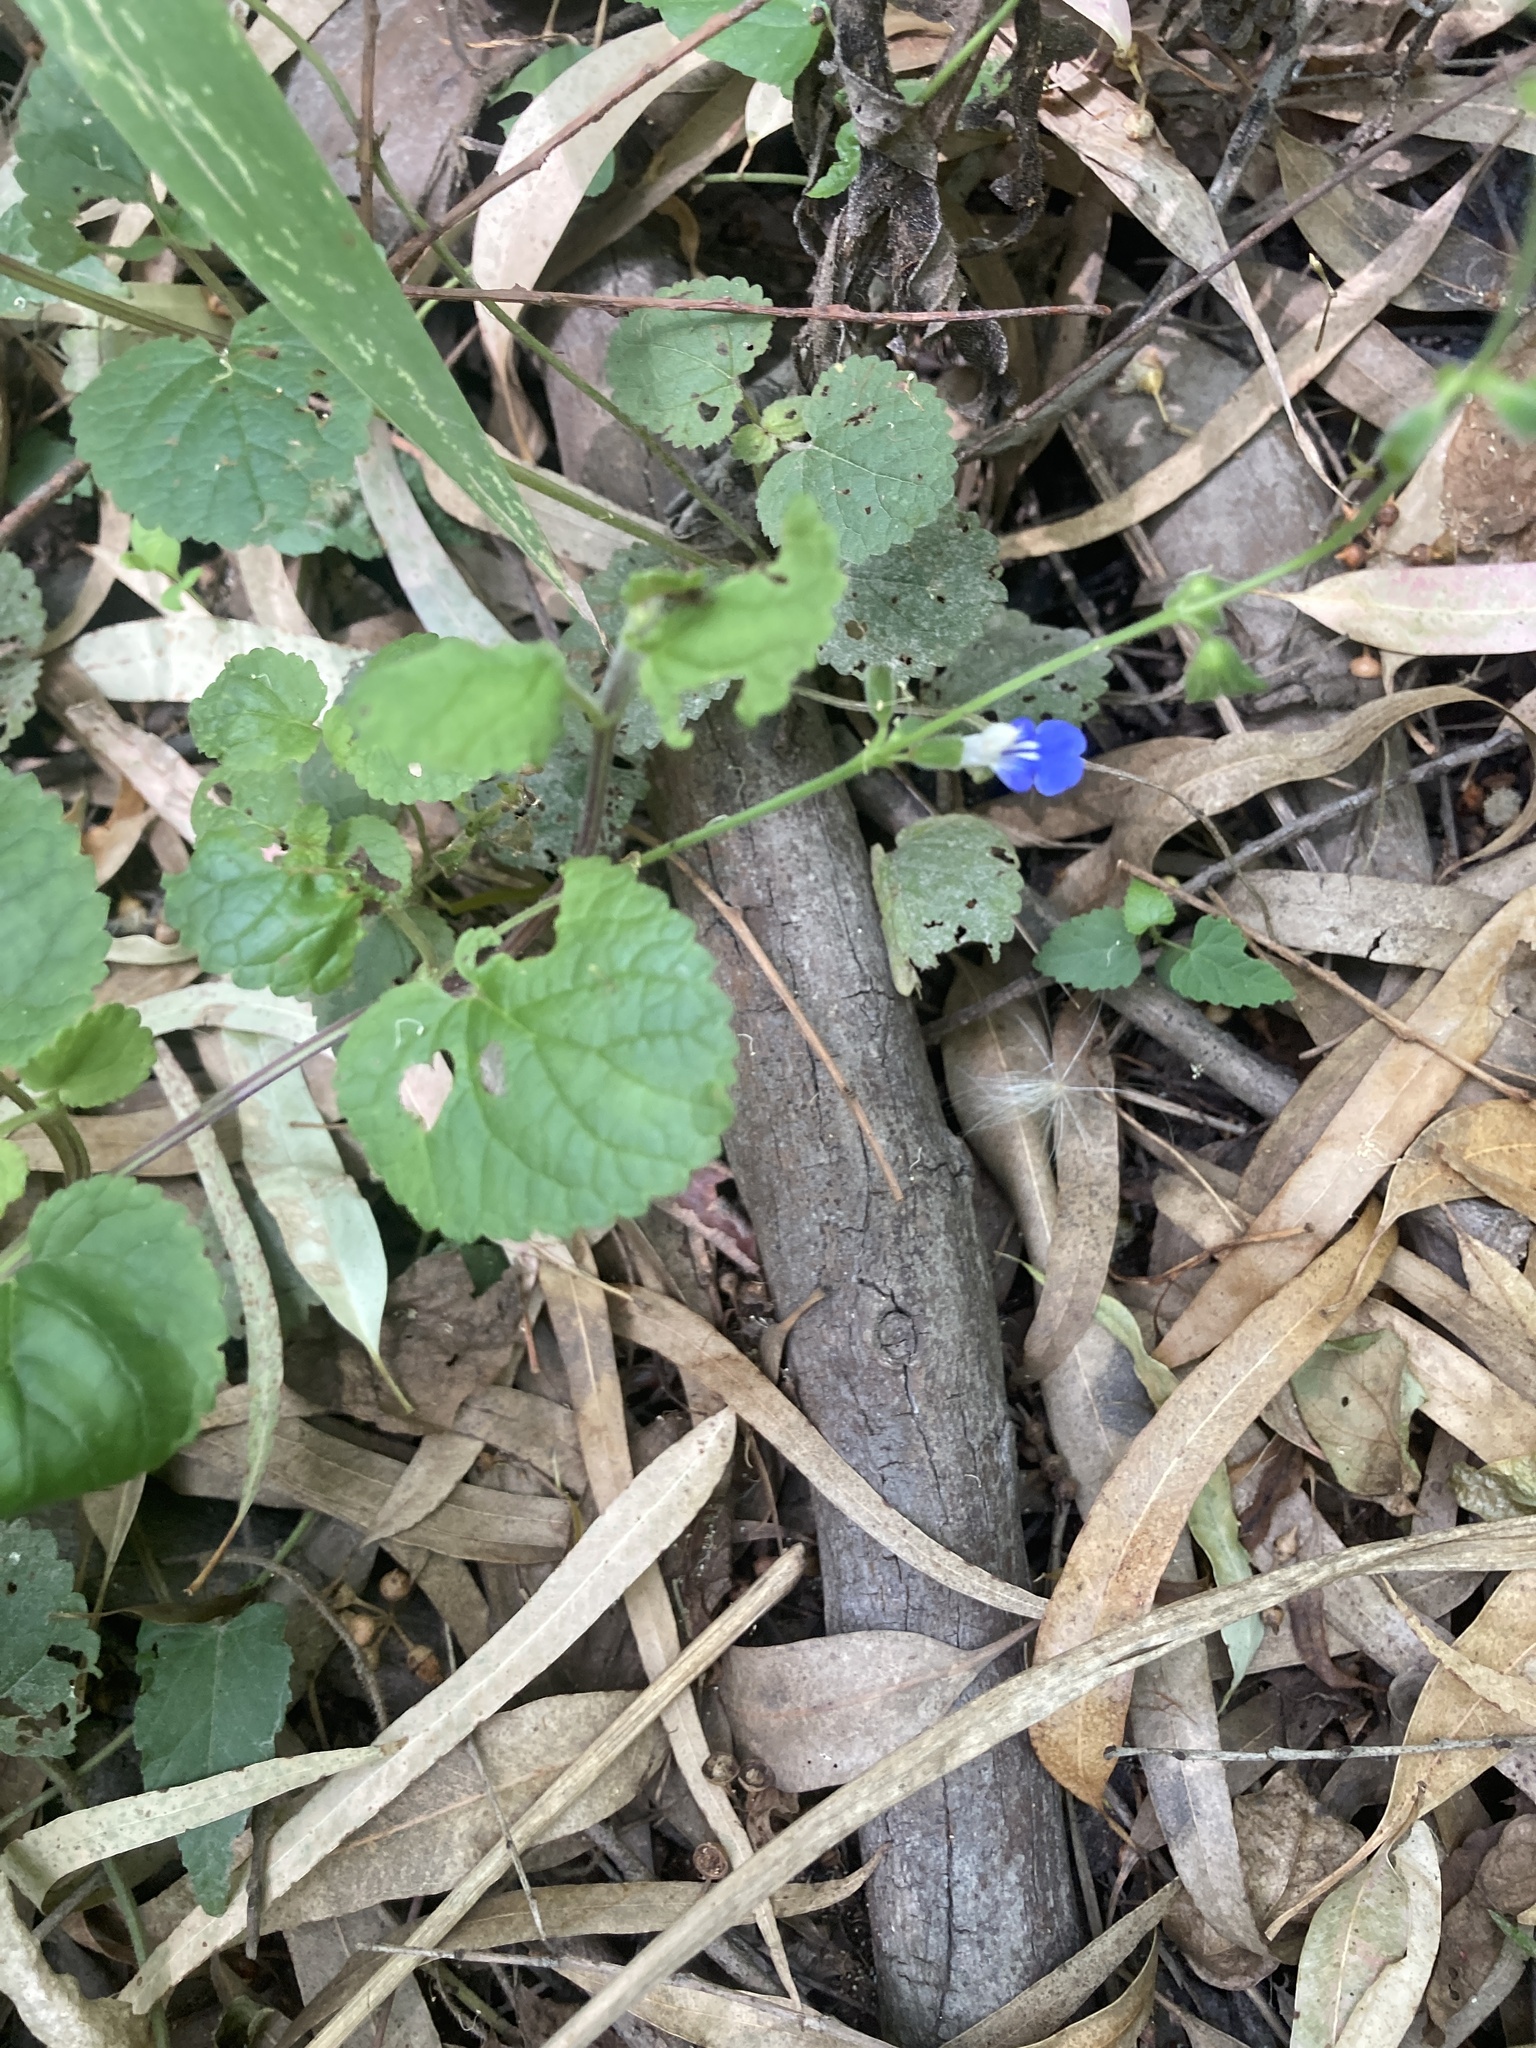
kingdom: Plantae
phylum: Tracheophyta
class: Magnoliopsida
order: Lamiales
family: Lamiaceae
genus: Salvia
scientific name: Salvia procurrens
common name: Blue creeper
